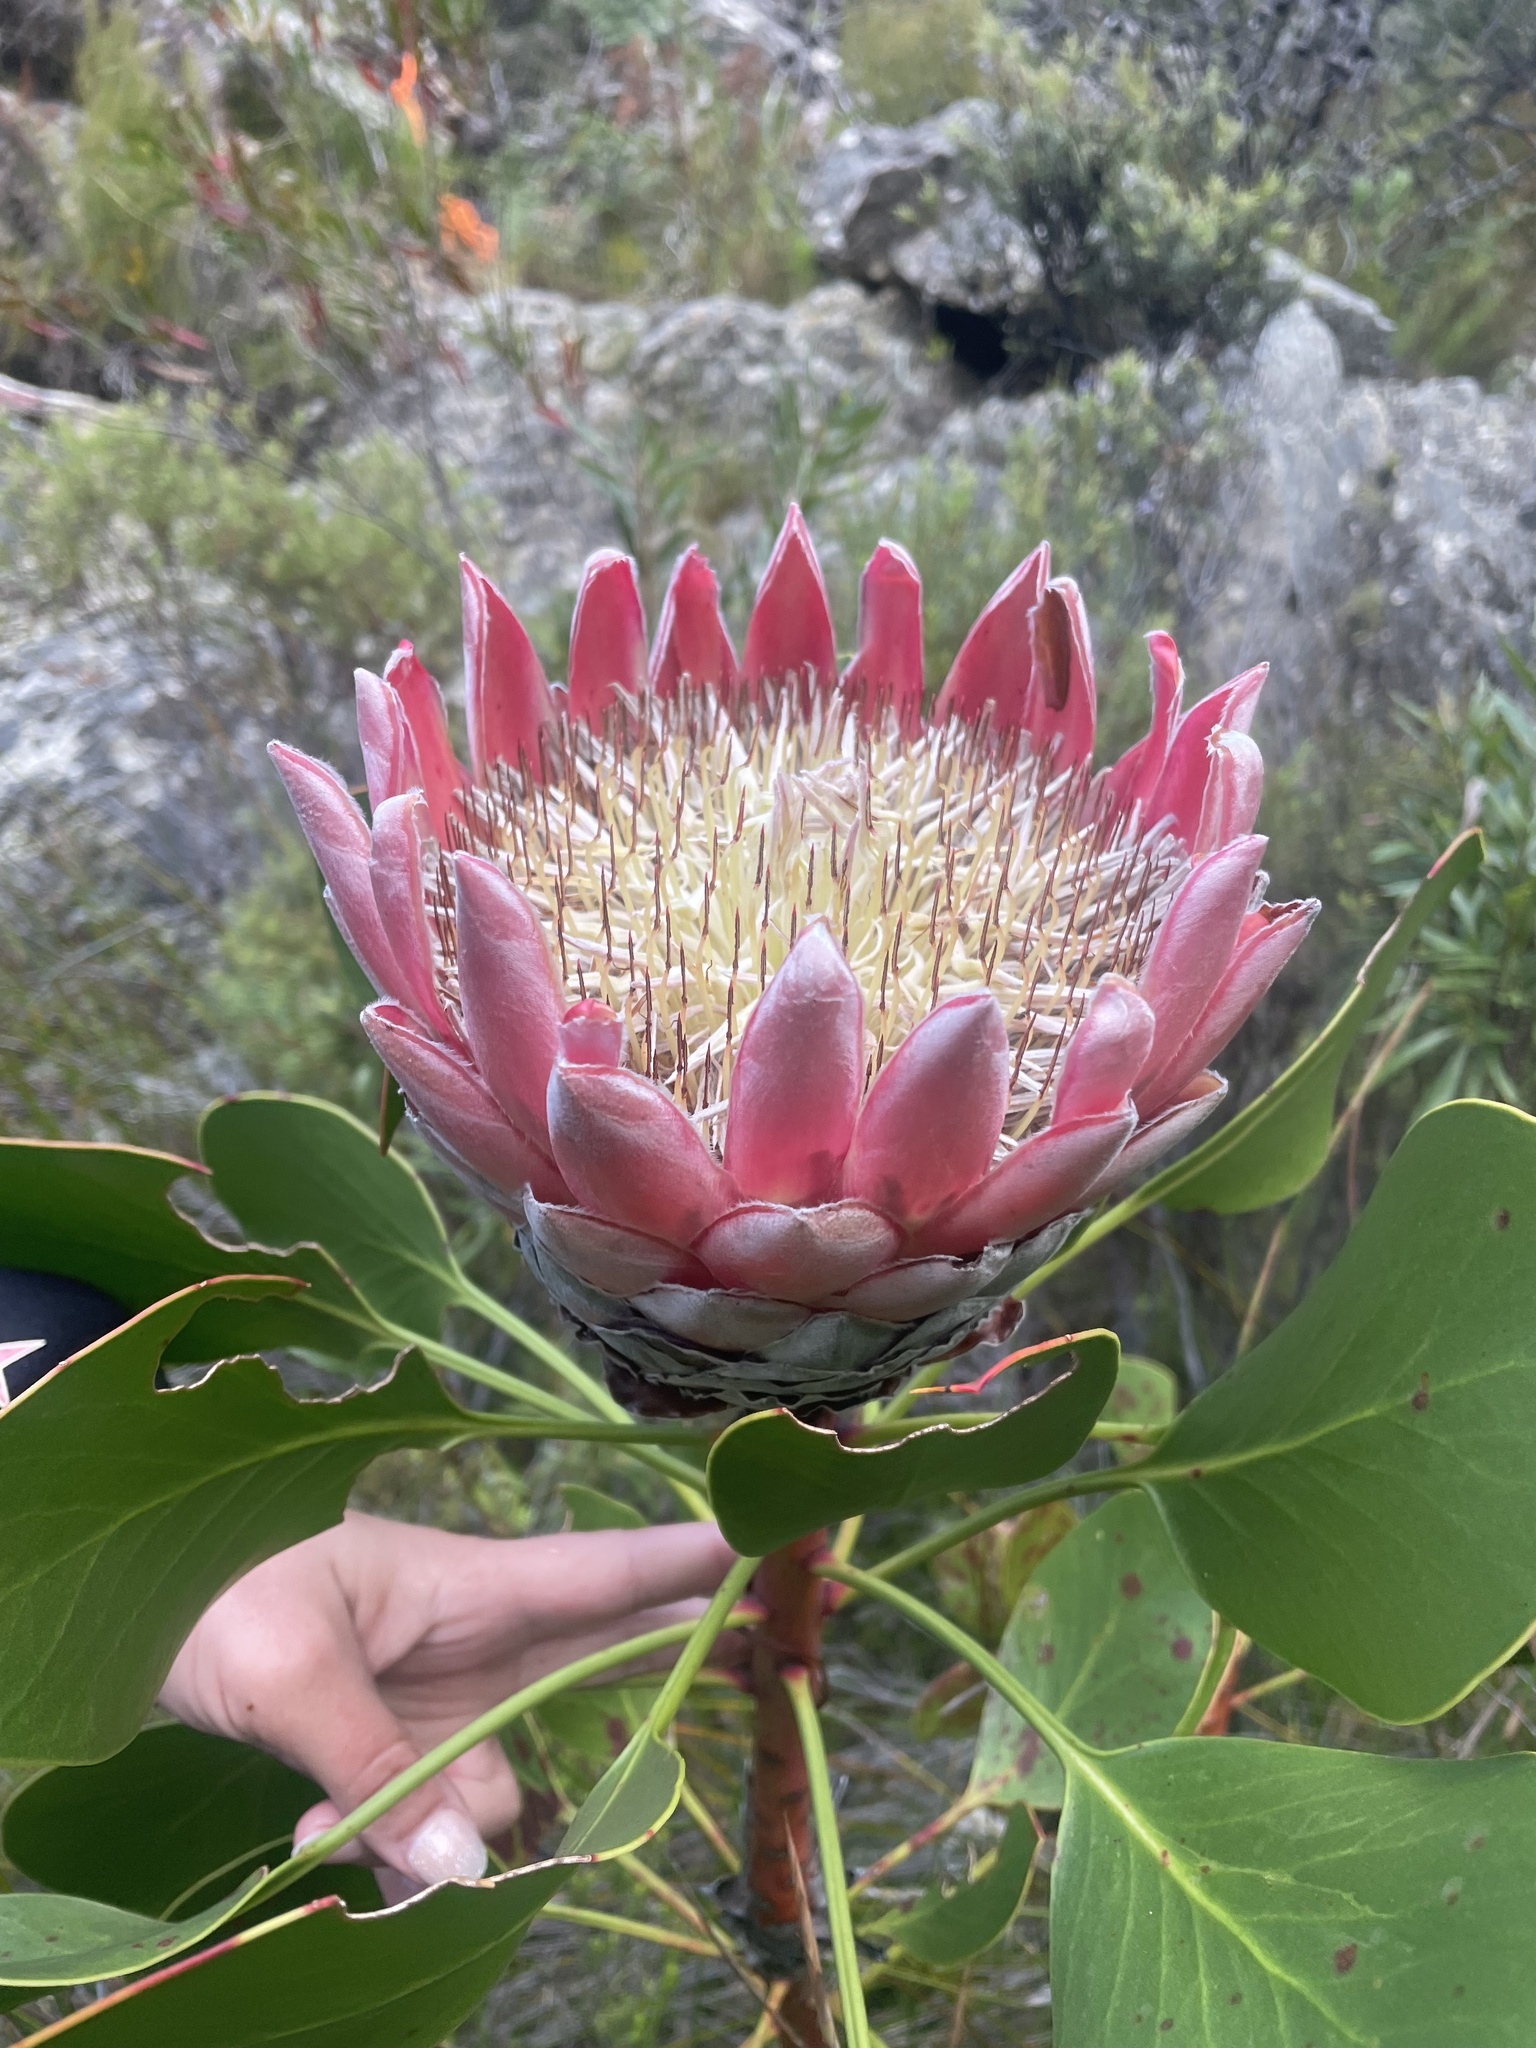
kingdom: Plantae
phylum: Tracheophyta
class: Magnoliopsida
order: Proteales
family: Proteaceae
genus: Protea
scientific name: Protea cynaroides
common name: King protea
